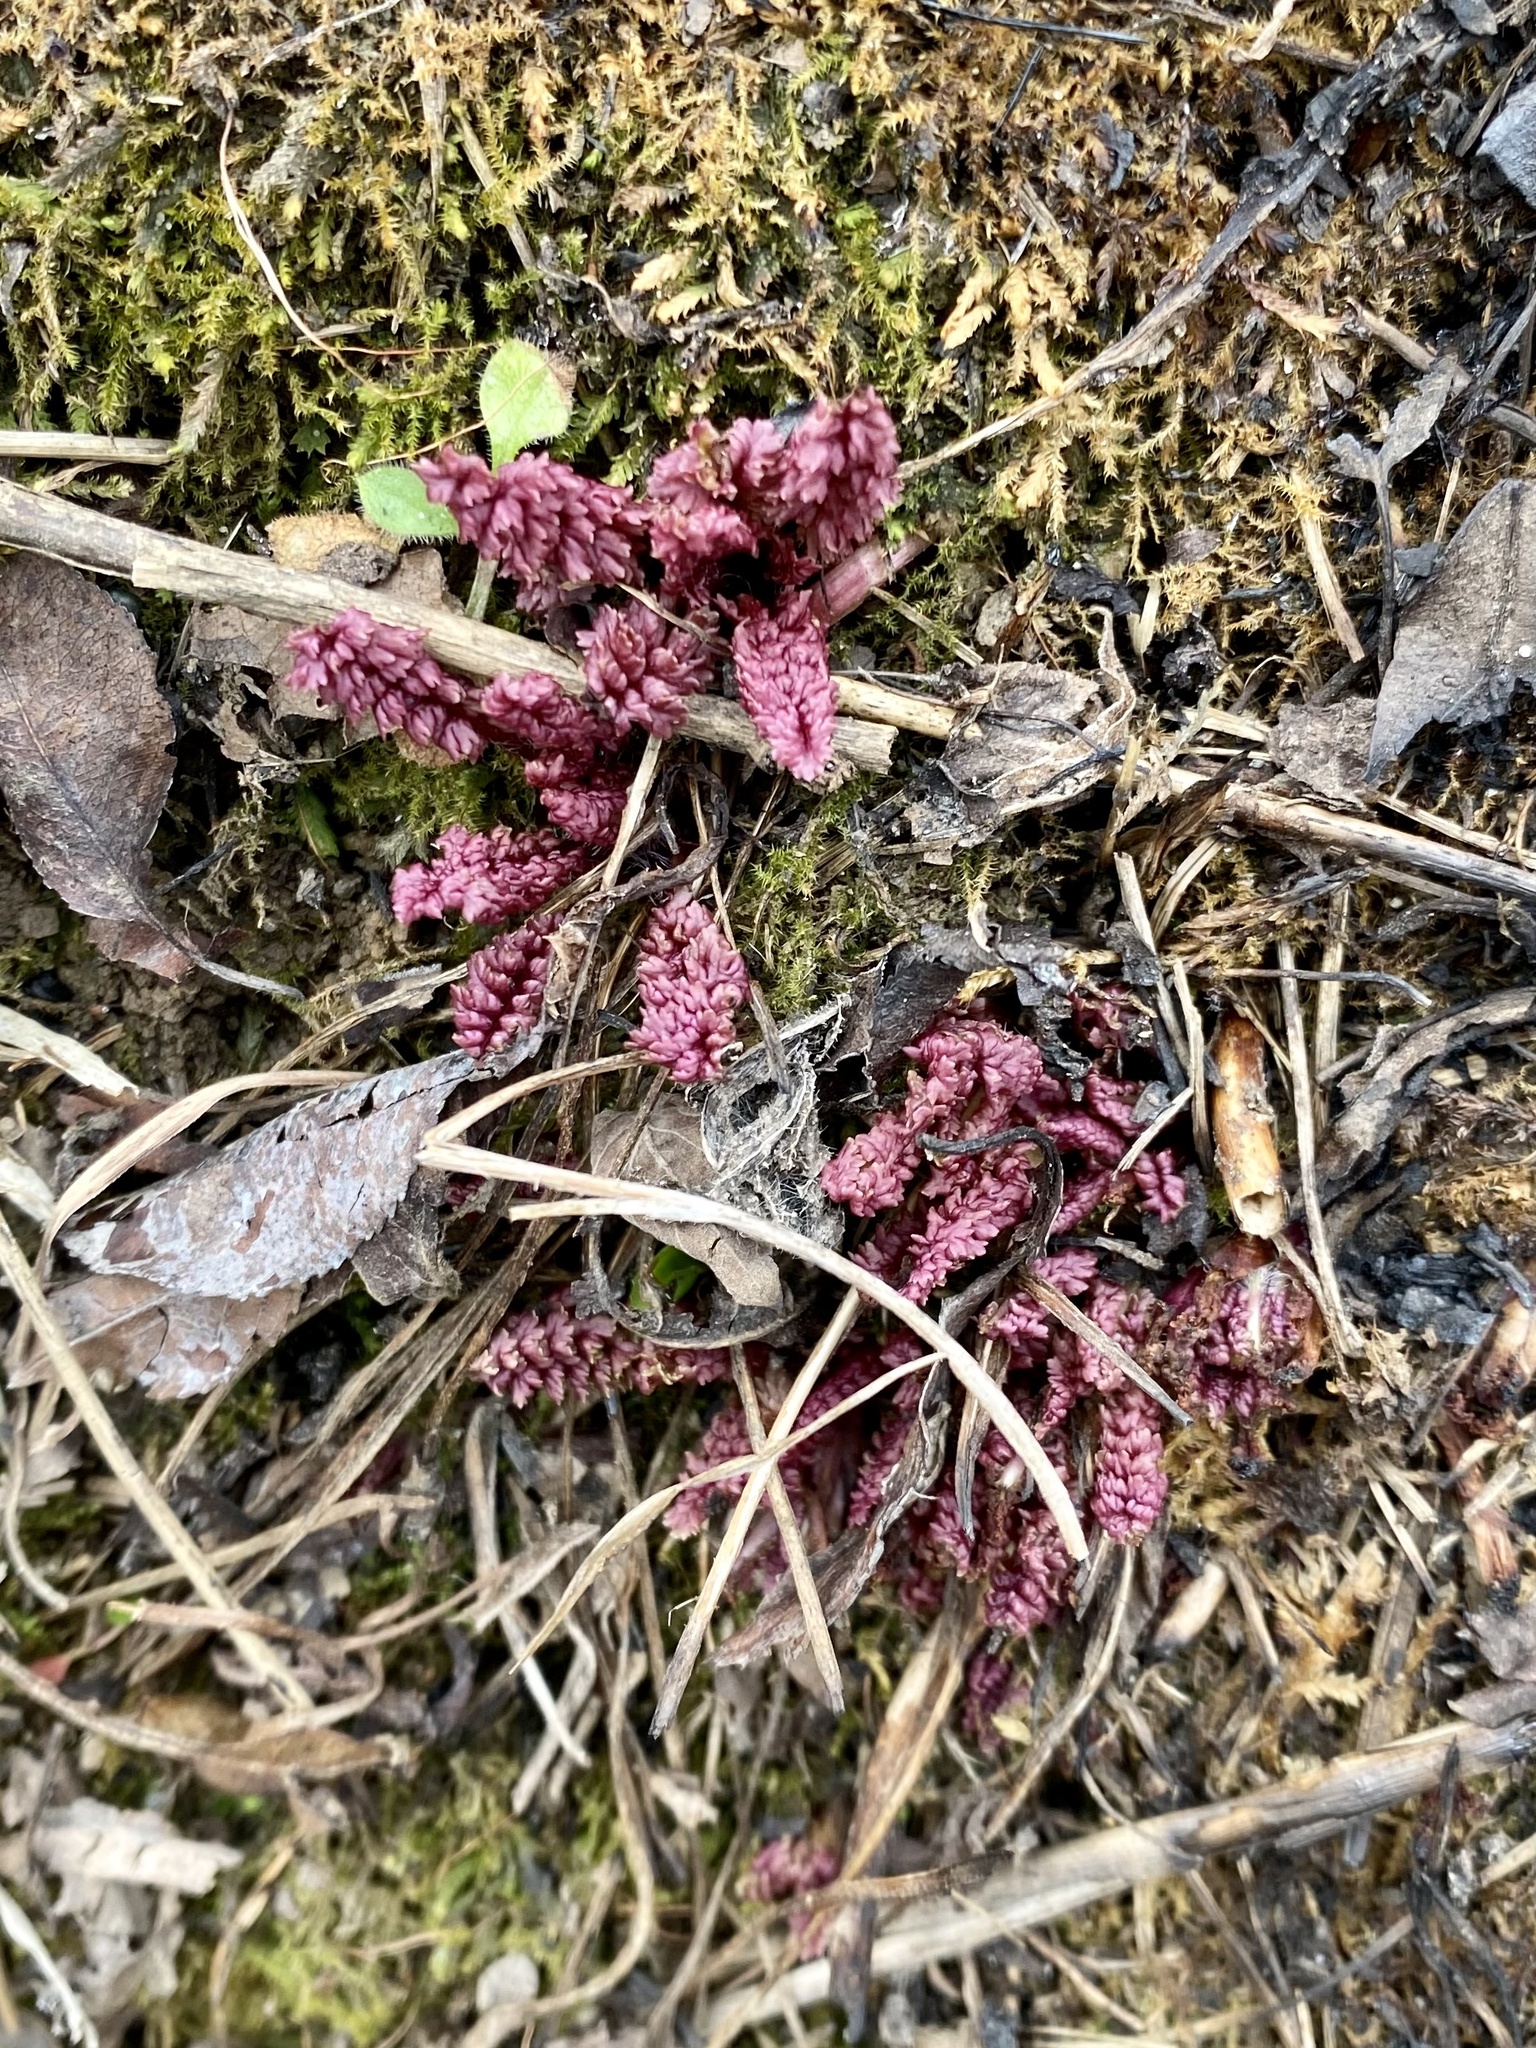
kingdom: Plantae
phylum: Tracheophyta
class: Magnoliopsida
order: Lamiales
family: Orobanchaceae
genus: Pedicularis
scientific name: Pedicularis canadensis
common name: Early lousewort
